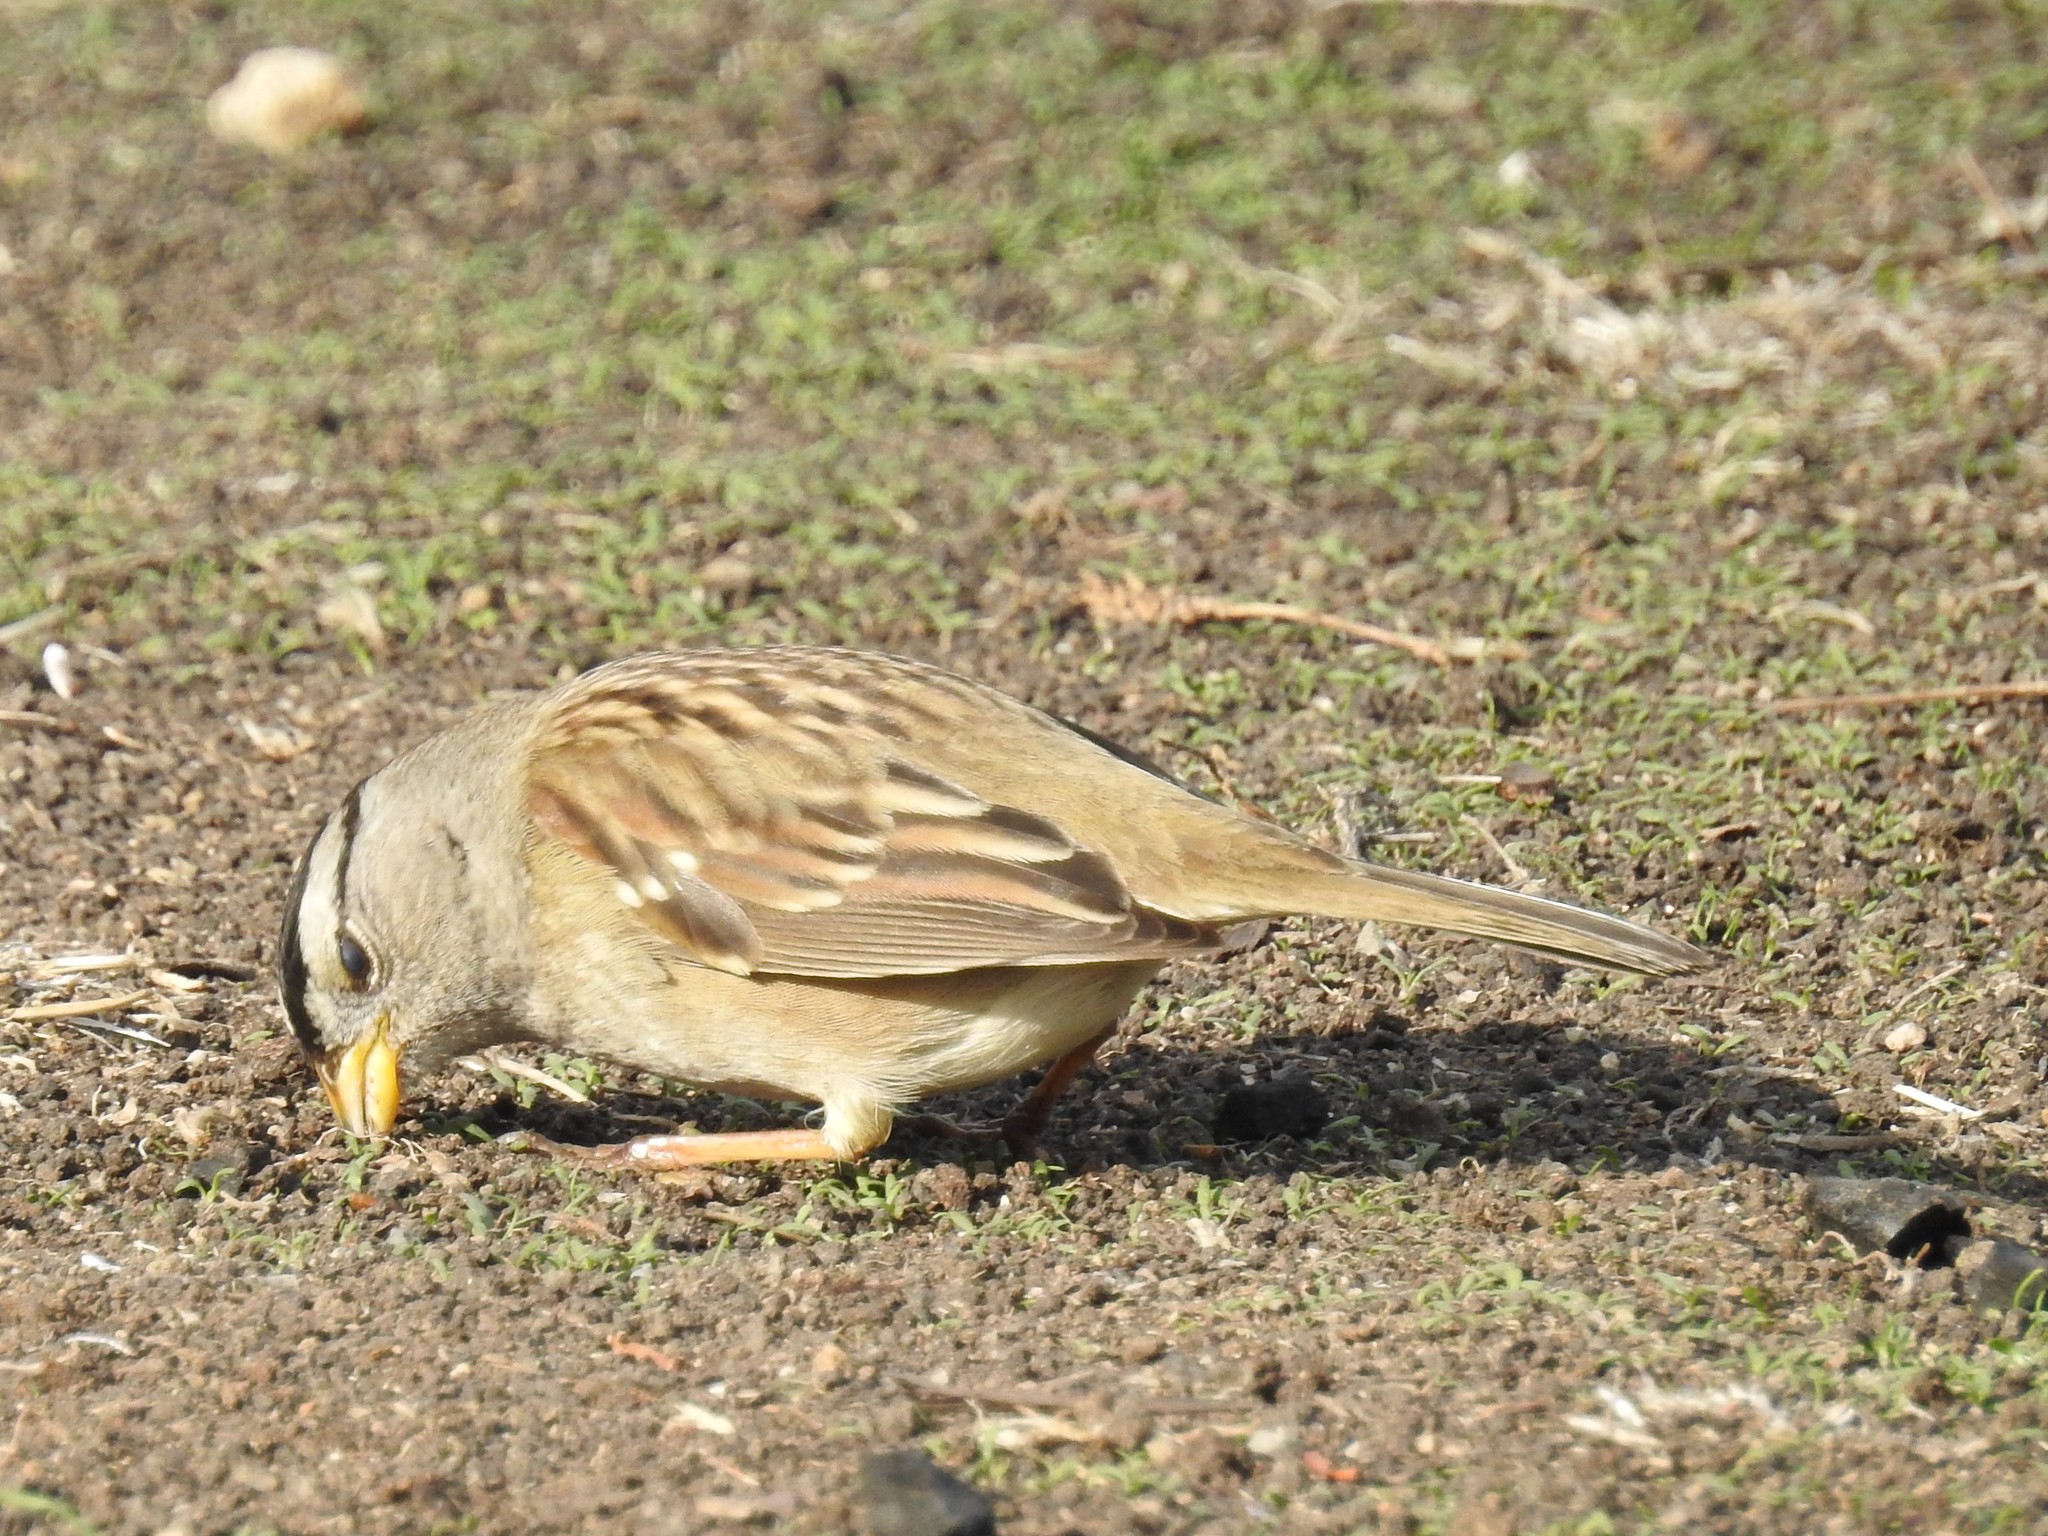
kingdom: Animalia
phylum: Chordata
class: Aves
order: Passeriformes
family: Passerellidae
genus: Zonotrichia
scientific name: Zonotrichia leucophrys
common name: White-crowned sparrow
